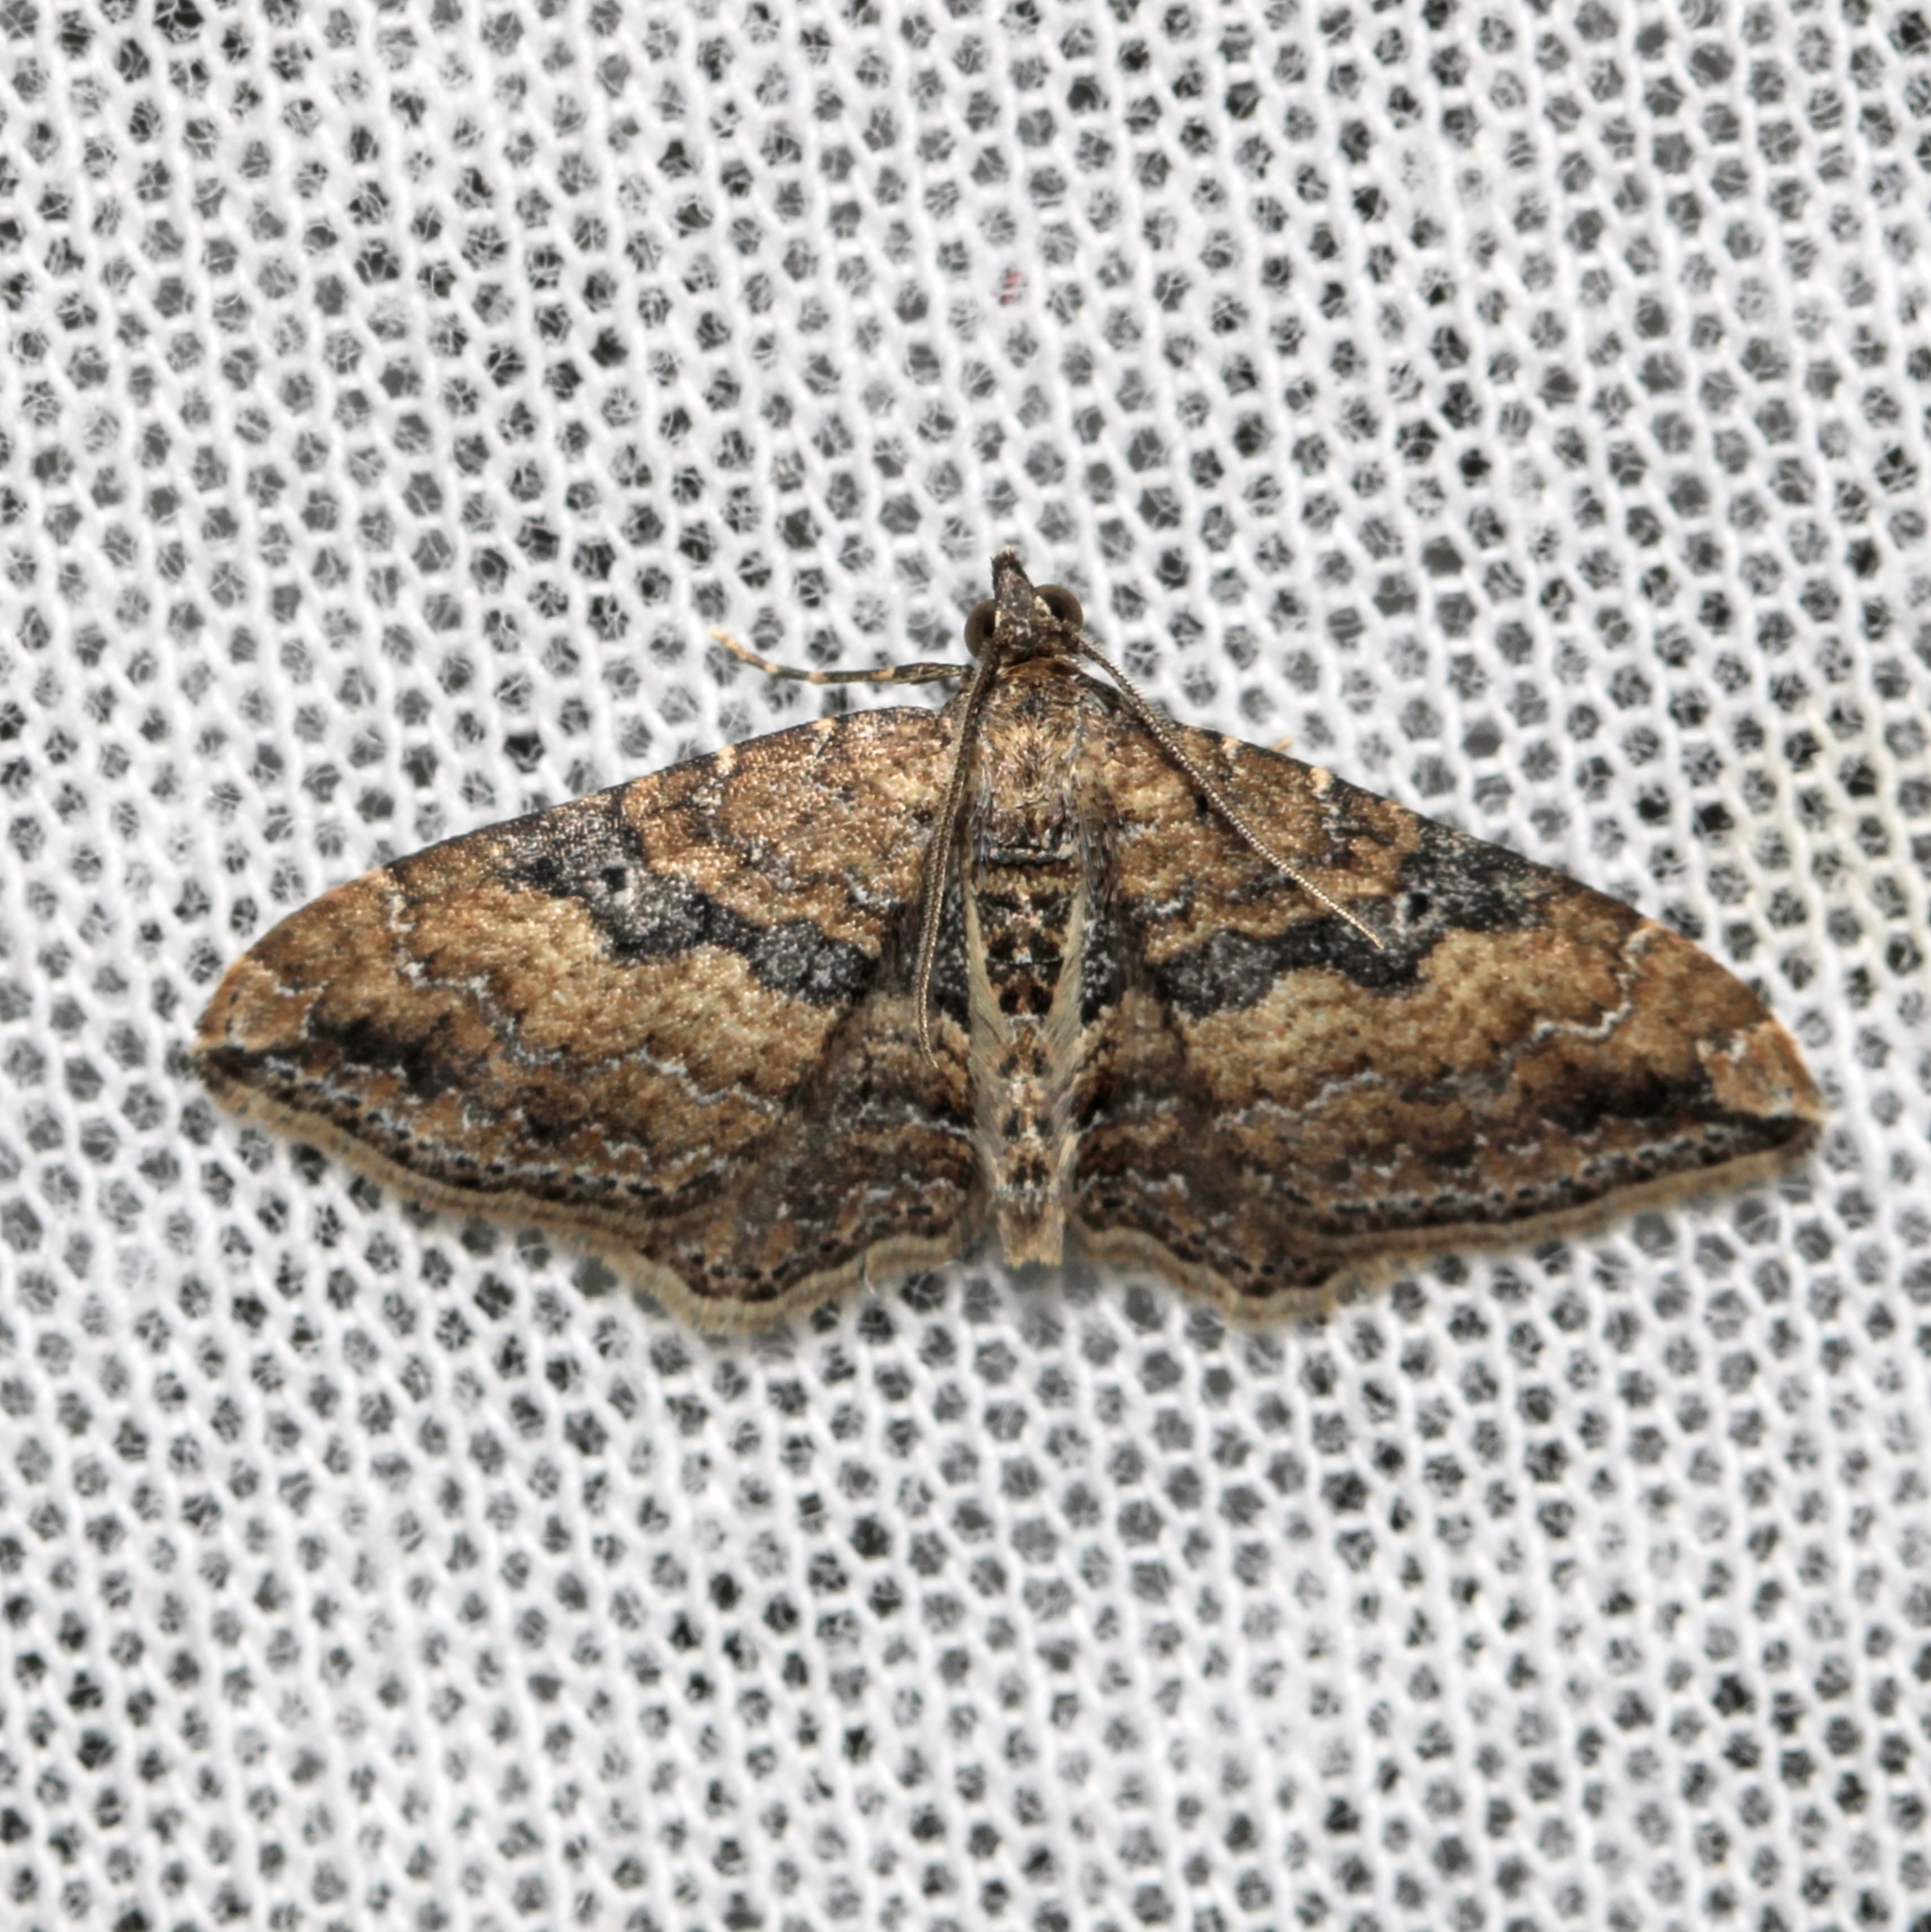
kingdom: Animalia
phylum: Arthropoda
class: Insecta
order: Lepidoptera
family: Geometridae
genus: Orthonama
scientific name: Orthonama obstipata
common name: The gem
